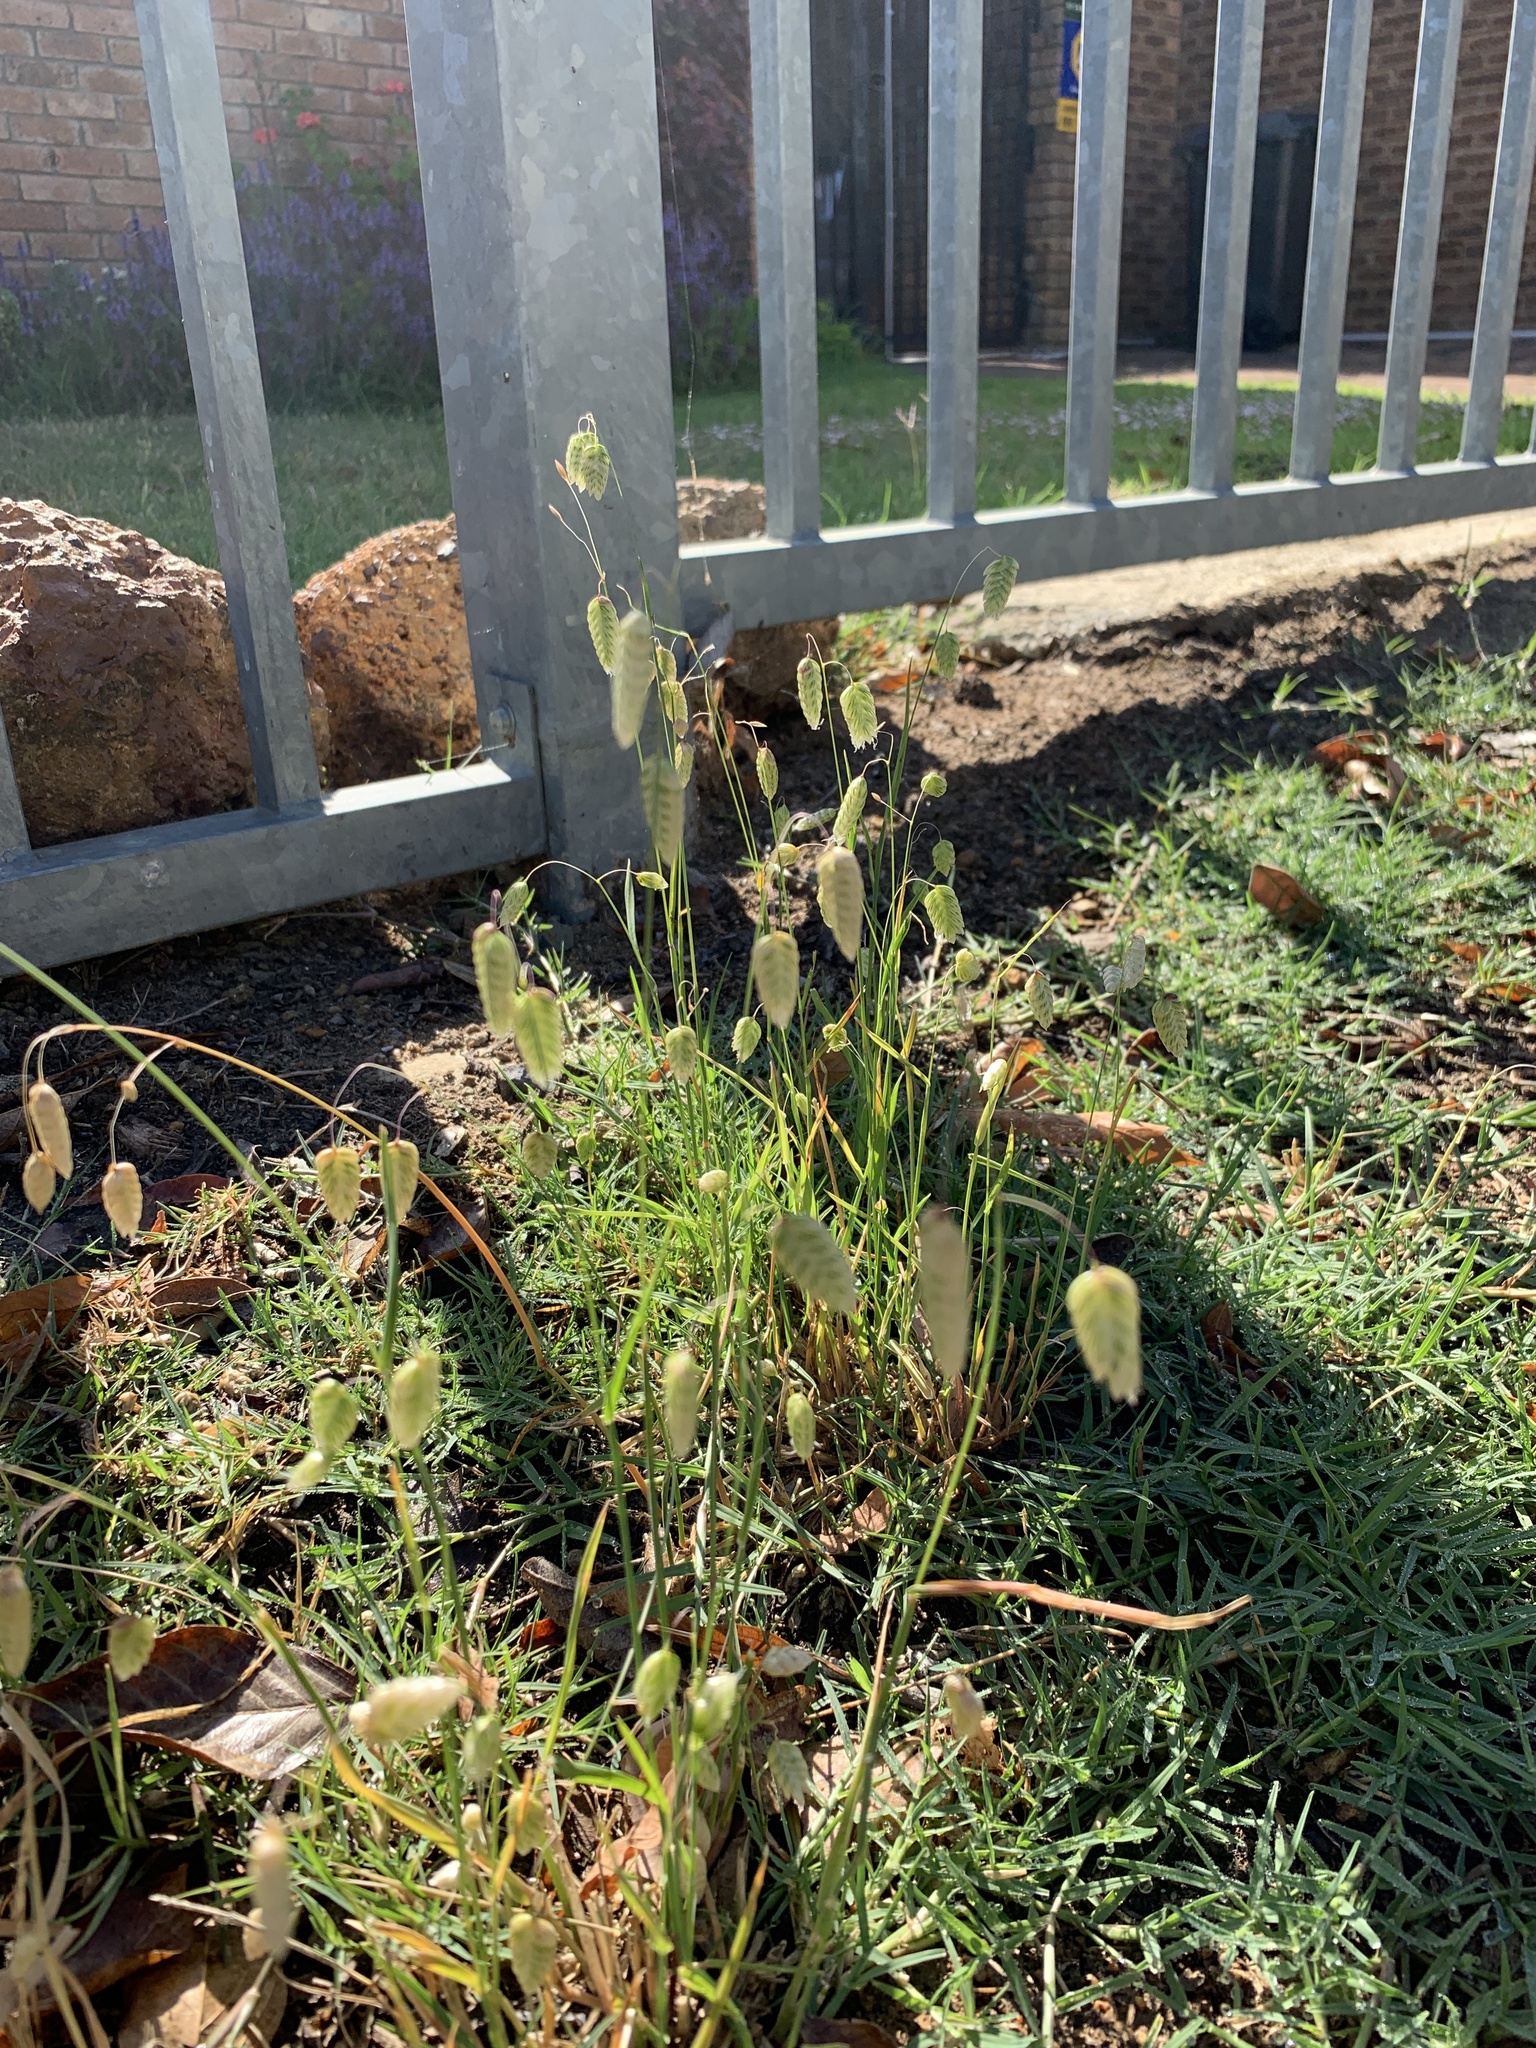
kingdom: Plantae
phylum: Tracheophyta
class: Liliopsida
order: Poales
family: Poaceae
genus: Briza
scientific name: Briza maxima
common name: Big quakinggrass
